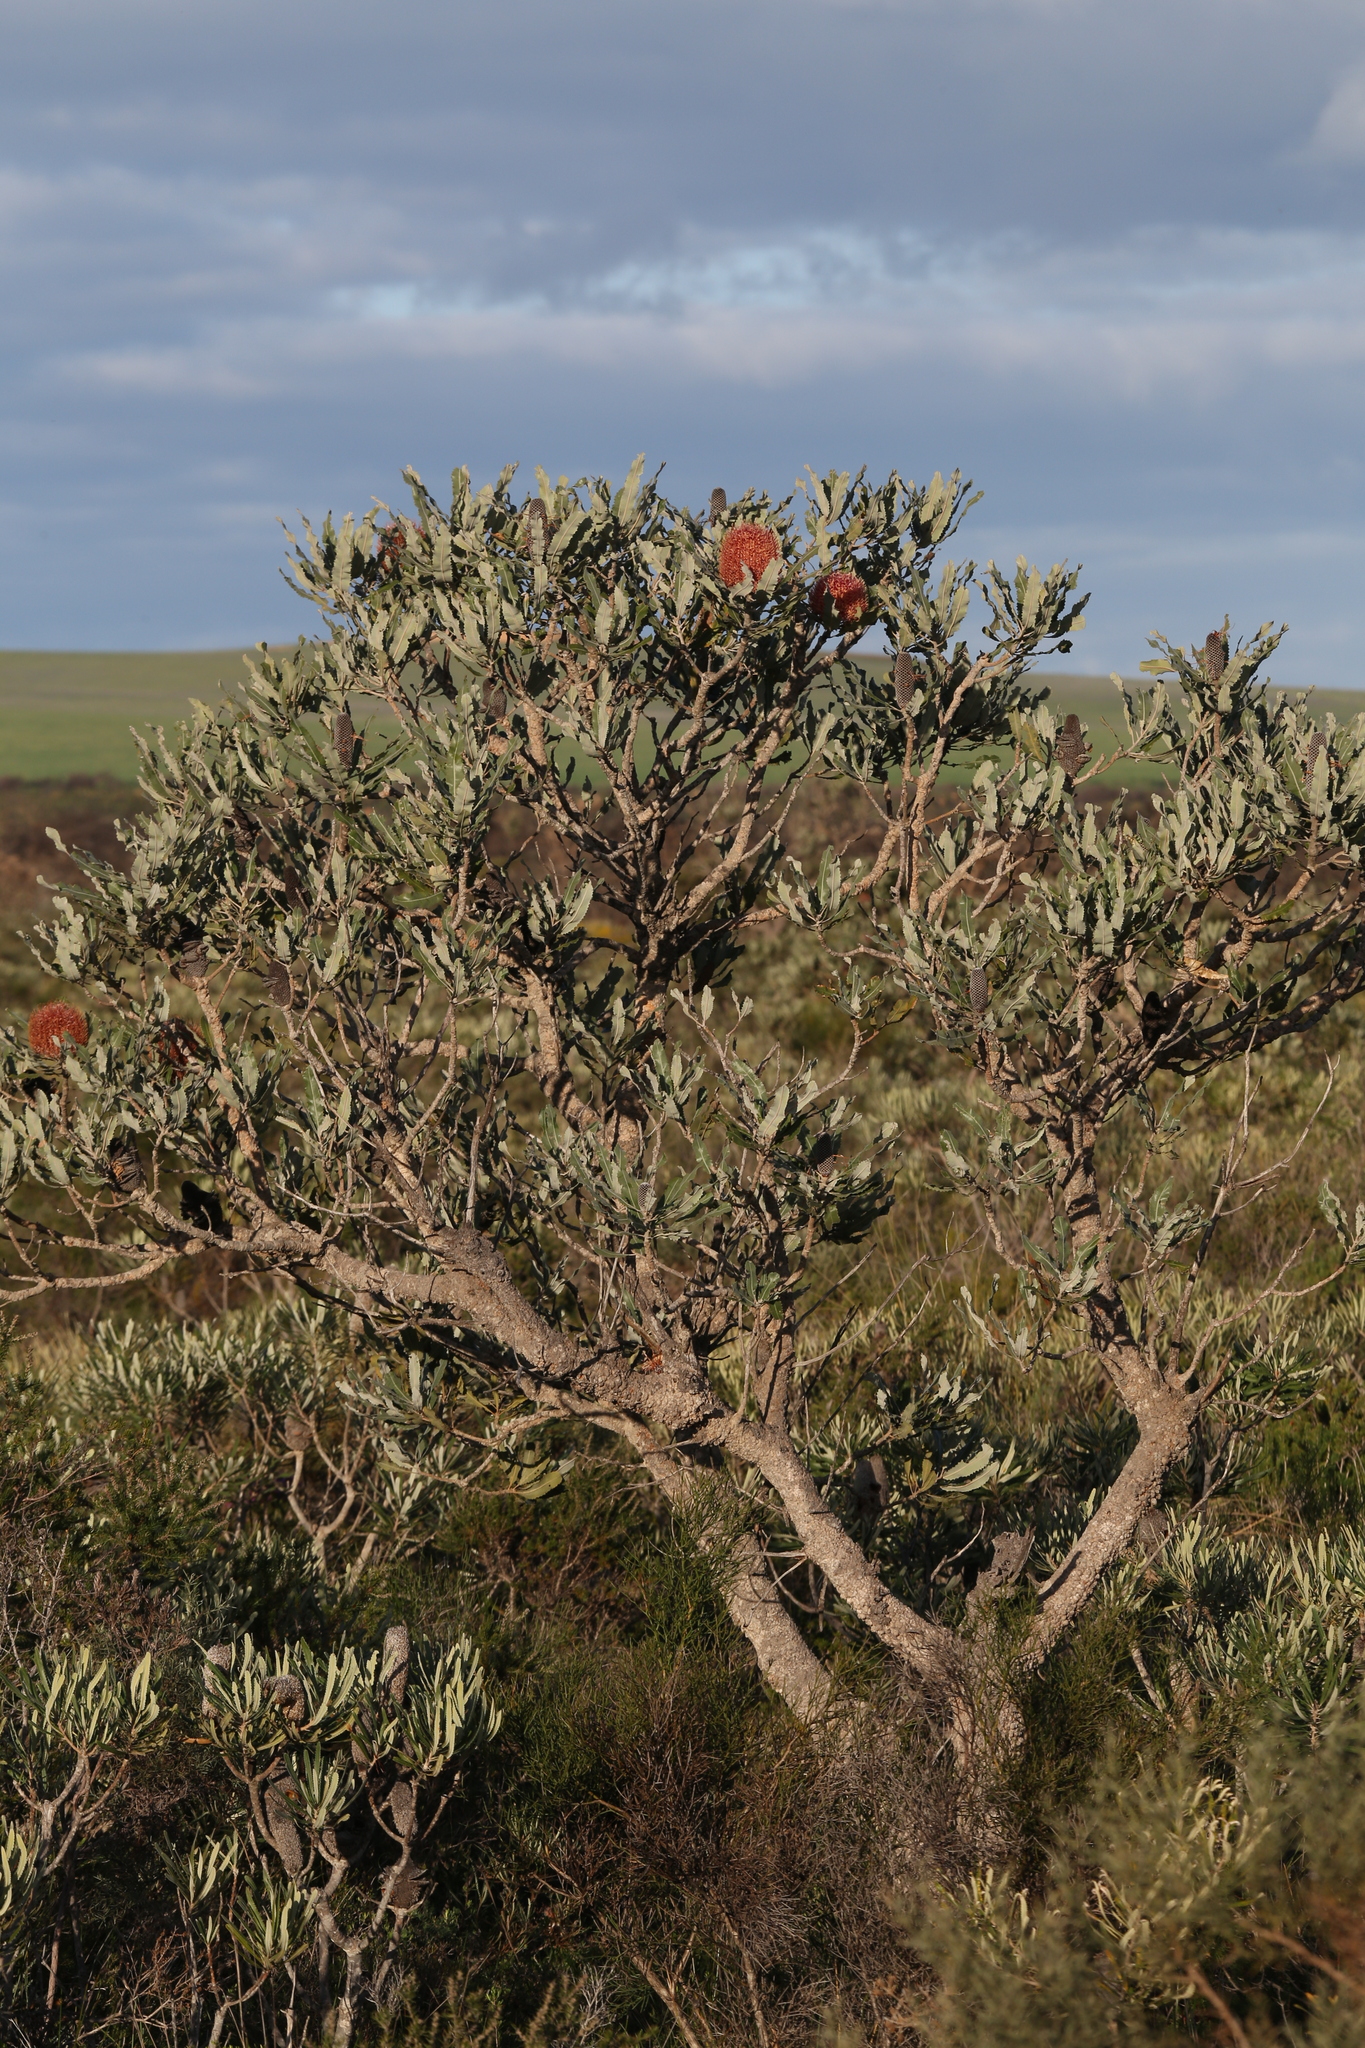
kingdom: Plantae
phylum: Tracheophyta
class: Magnoliopsida
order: Proteales
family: Proteaceae
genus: Banksia
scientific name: Banksia menziesii
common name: Menzie's banksia
